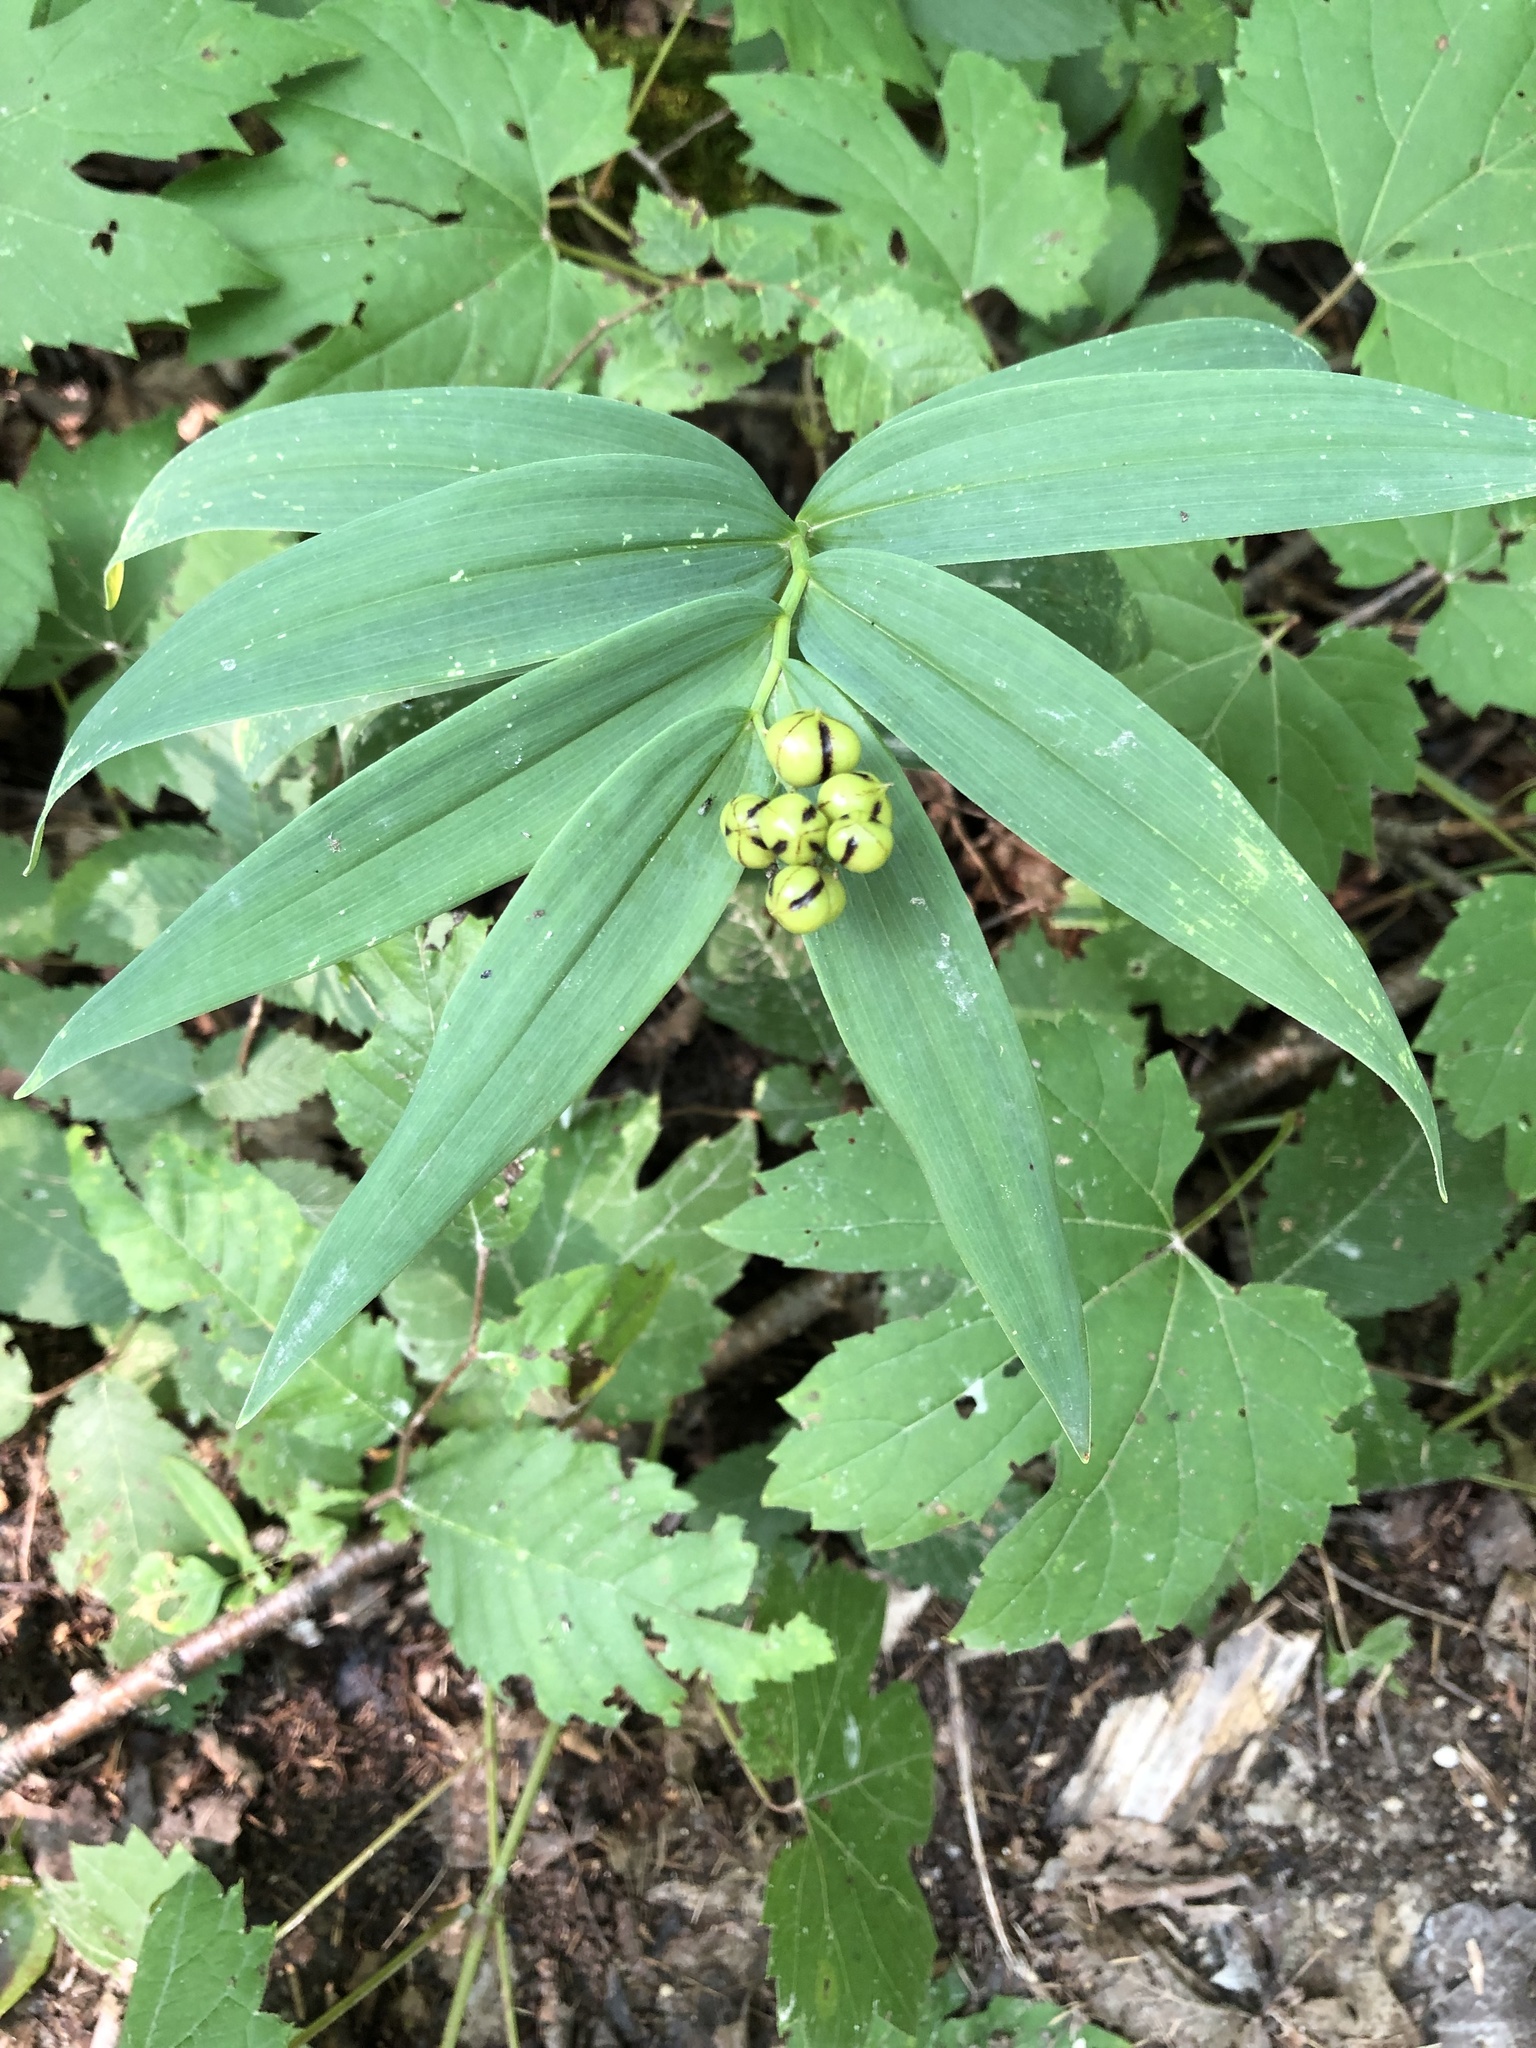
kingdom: Plantae
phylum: Tracheophyta
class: Liliopsida
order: Asparagales
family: Asparagaceae
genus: Maianthemum
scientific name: Maianthemum stellatum
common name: Little false solomon's seal
